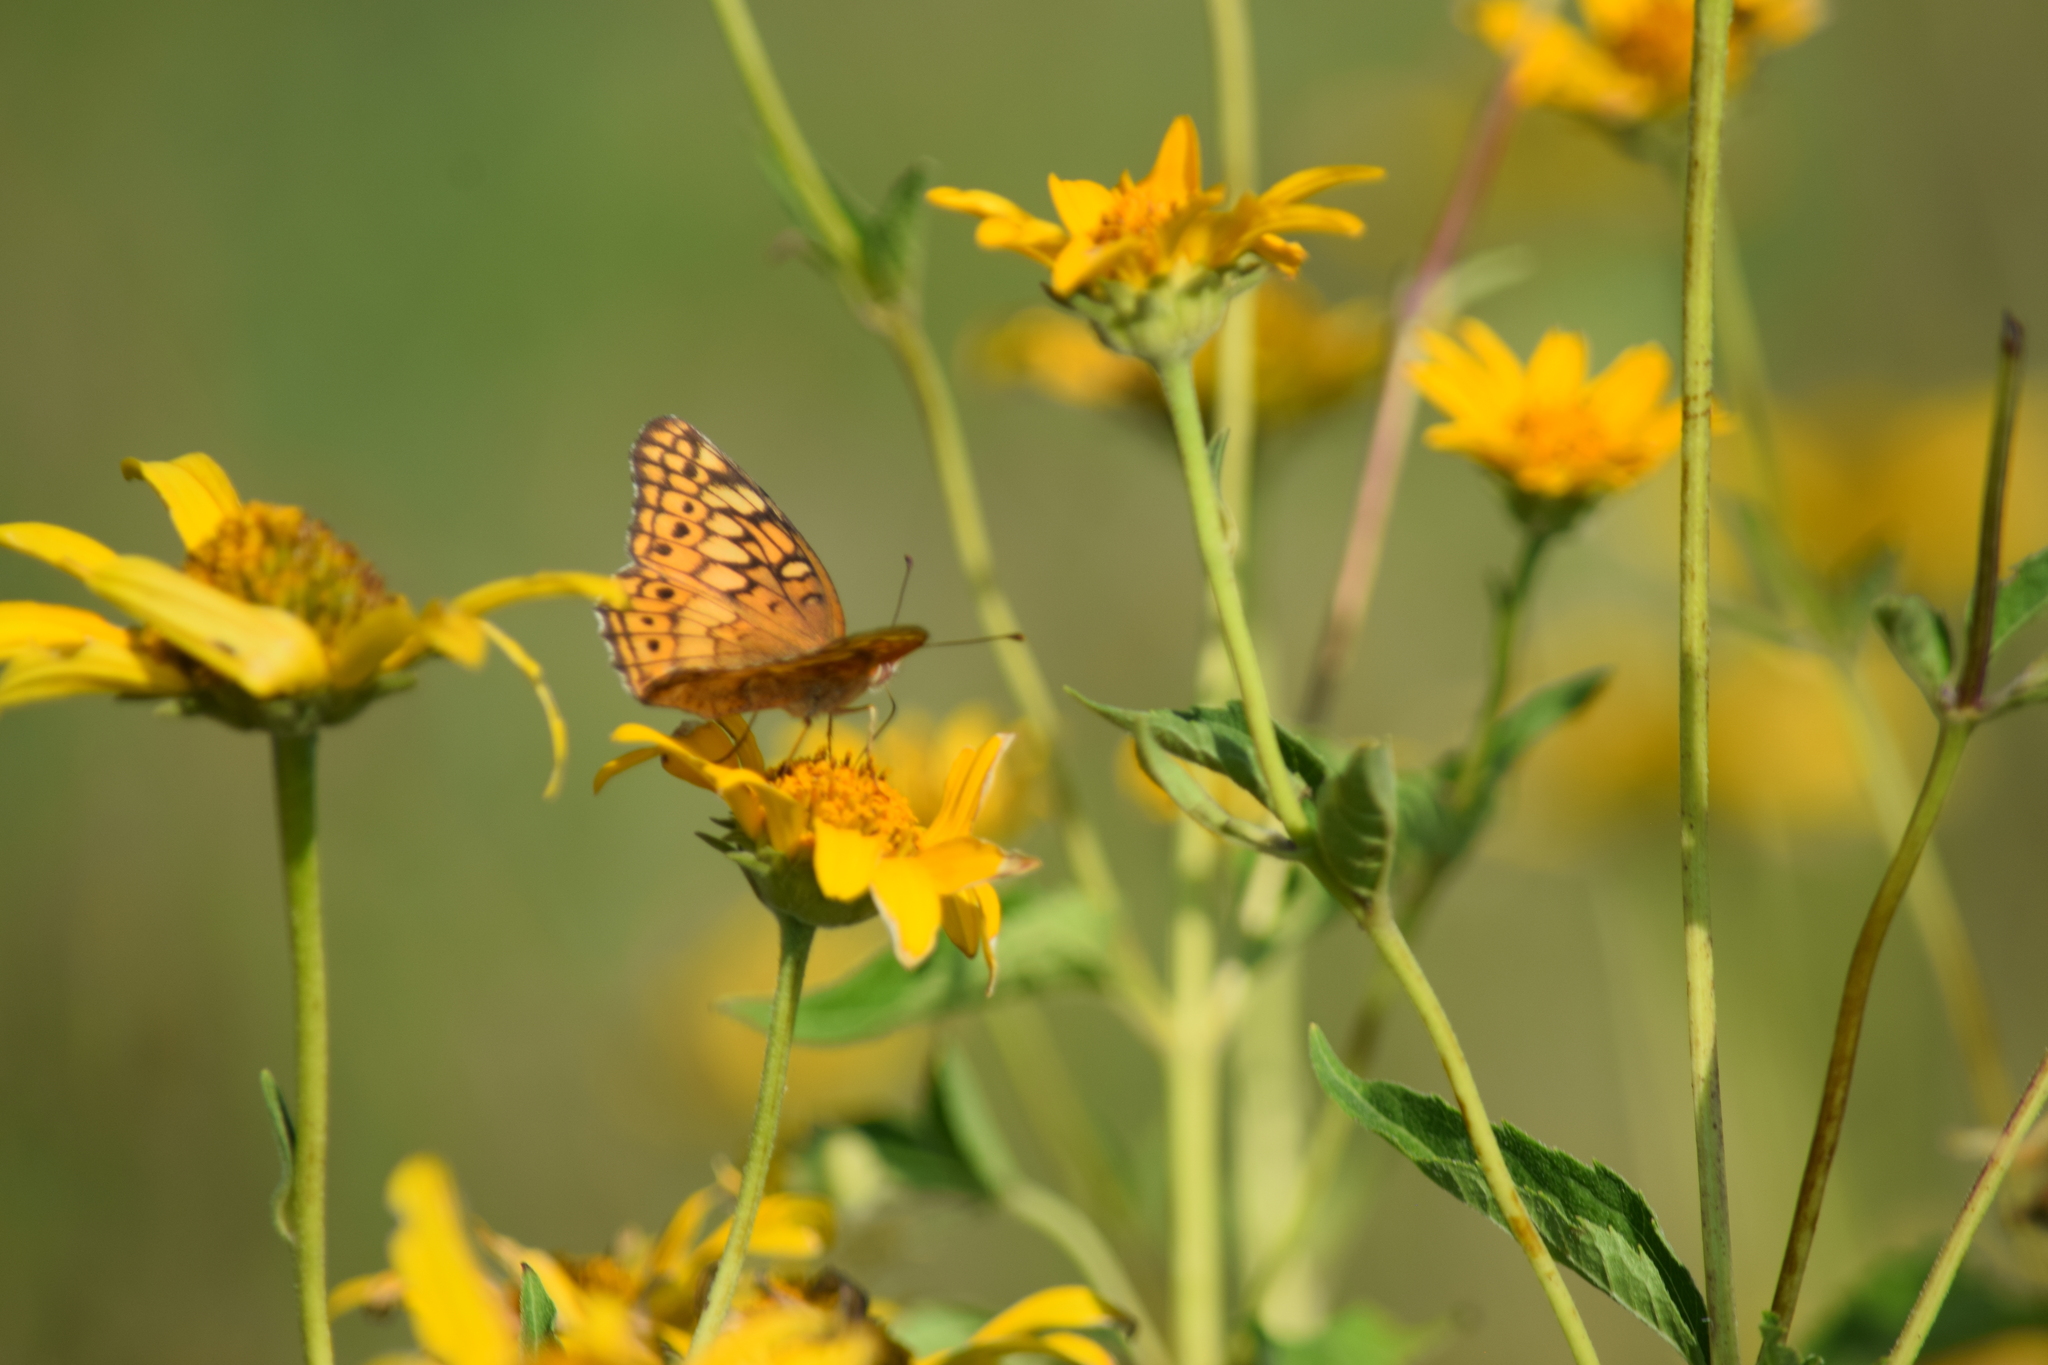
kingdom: Animalia
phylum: Arthropoda
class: Insecta
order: Lepidoptera
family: Nymphalidae
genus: Euptoieta
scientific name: Euptoieta claudia
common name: Variegated fritillary
